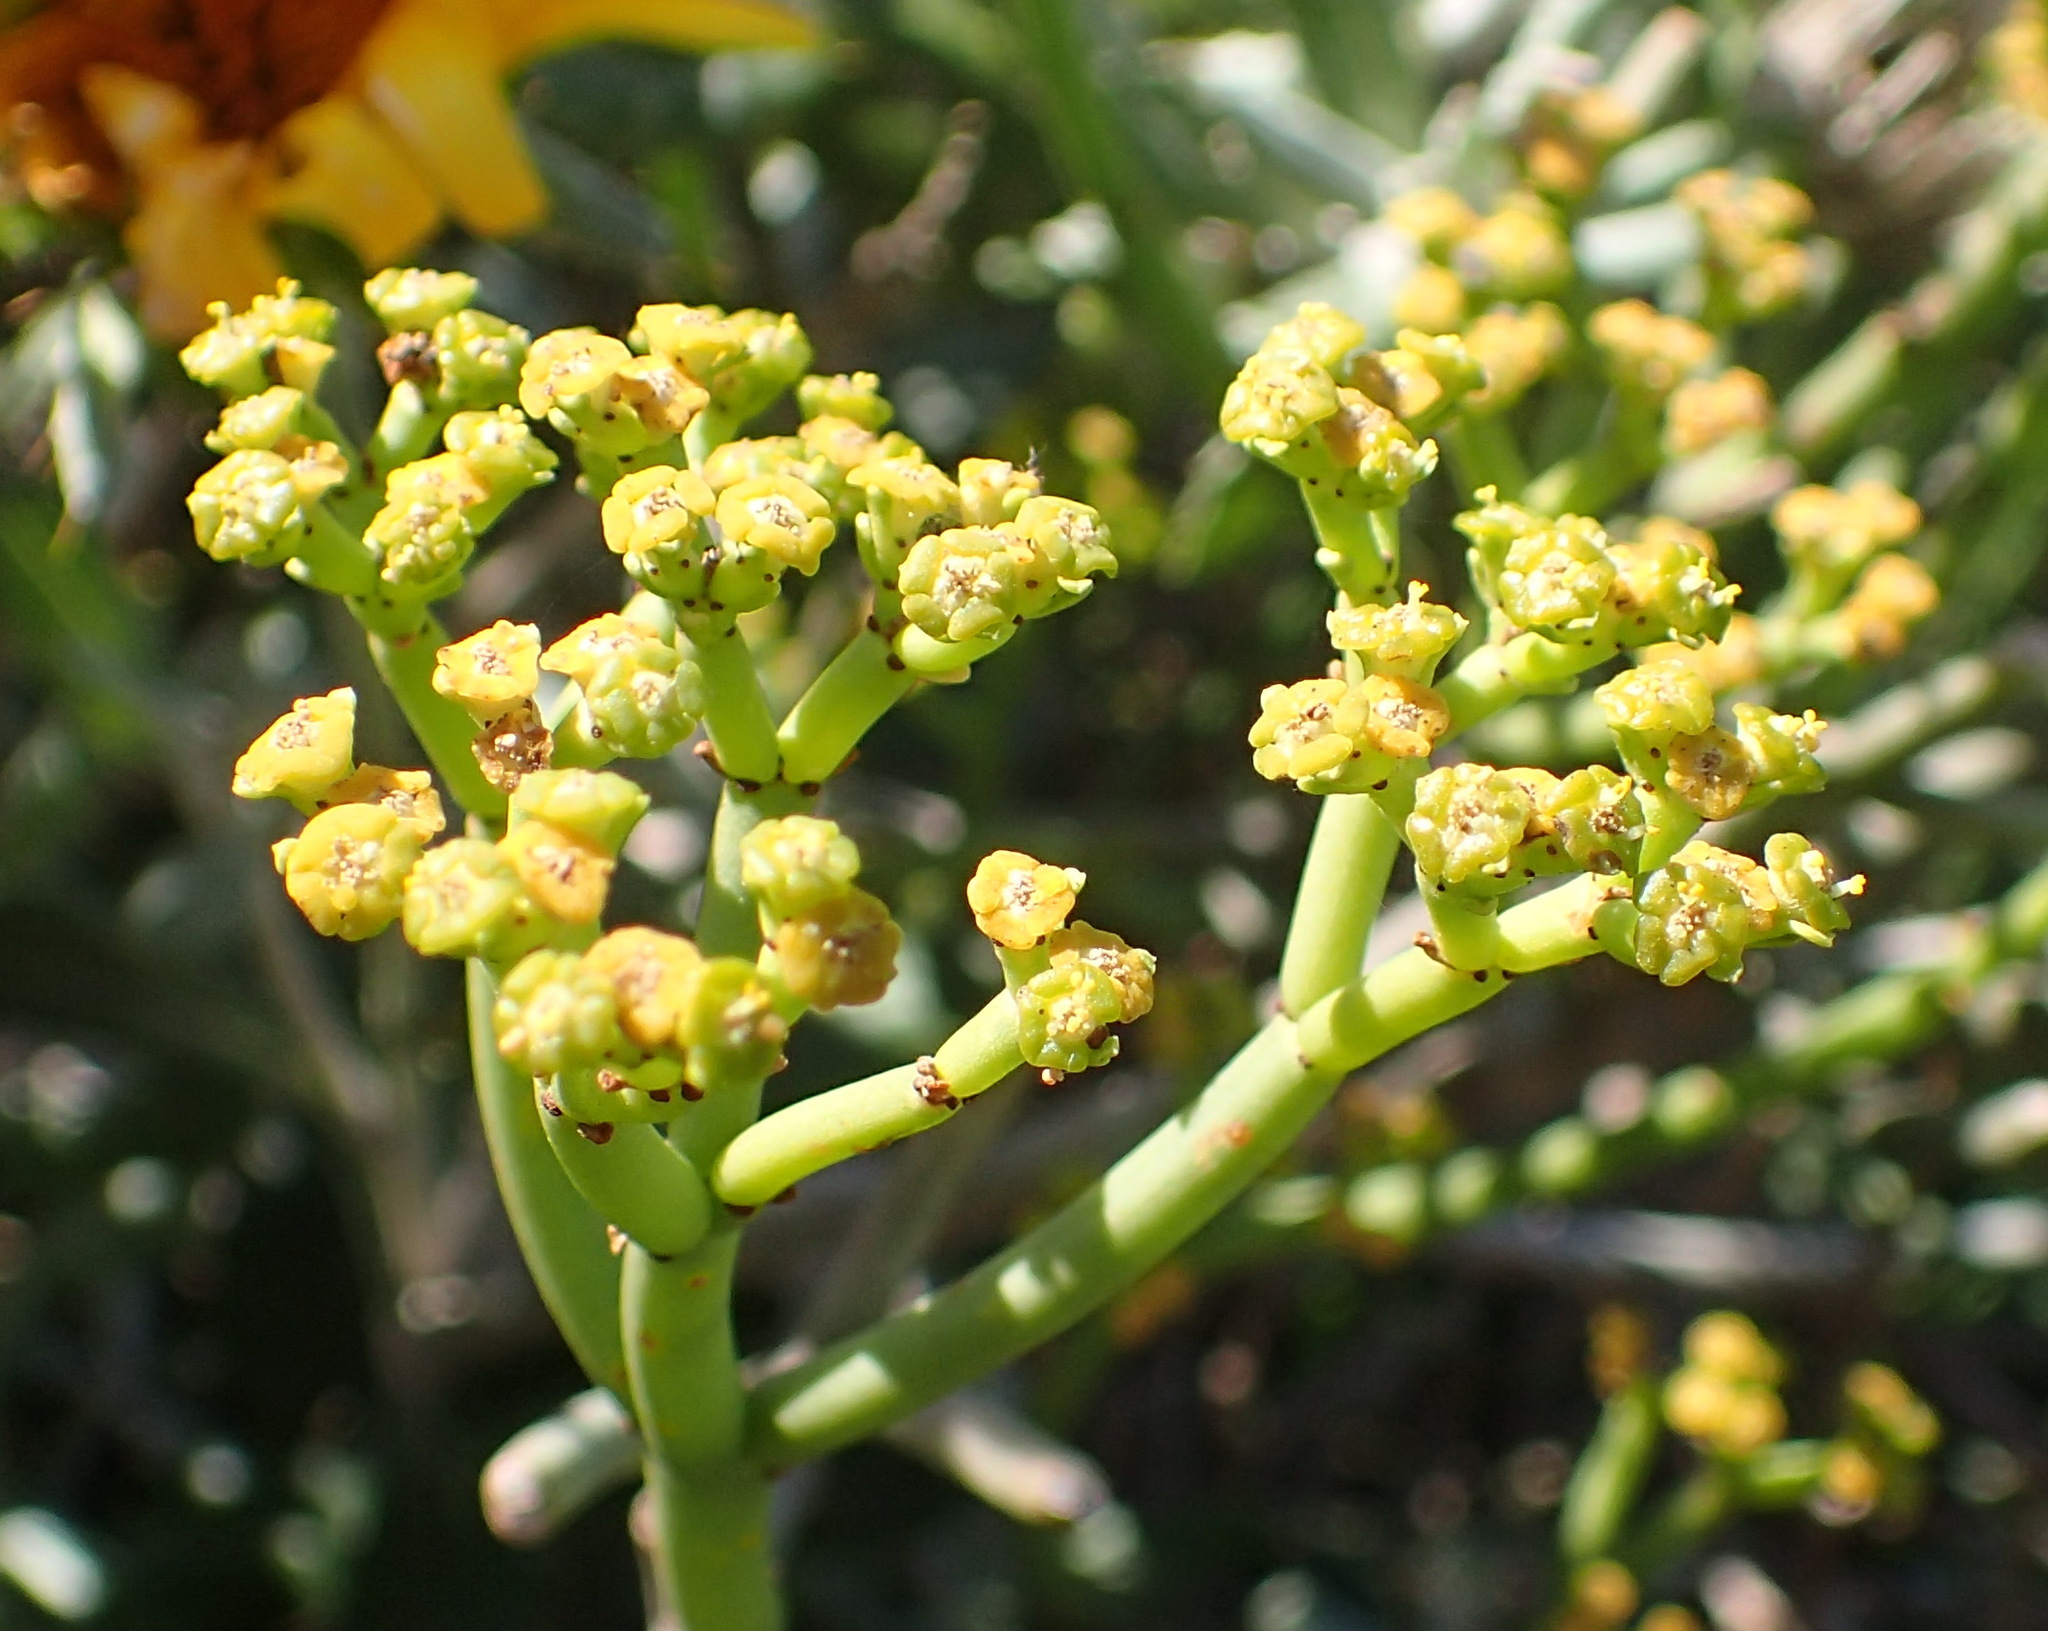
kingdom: Plantae
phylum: Tracheophyta
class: Magnoliopsida
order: Malpighiales
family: Euphorbiaceae
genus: Euphorbia
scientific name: Euphorbia burmanni
